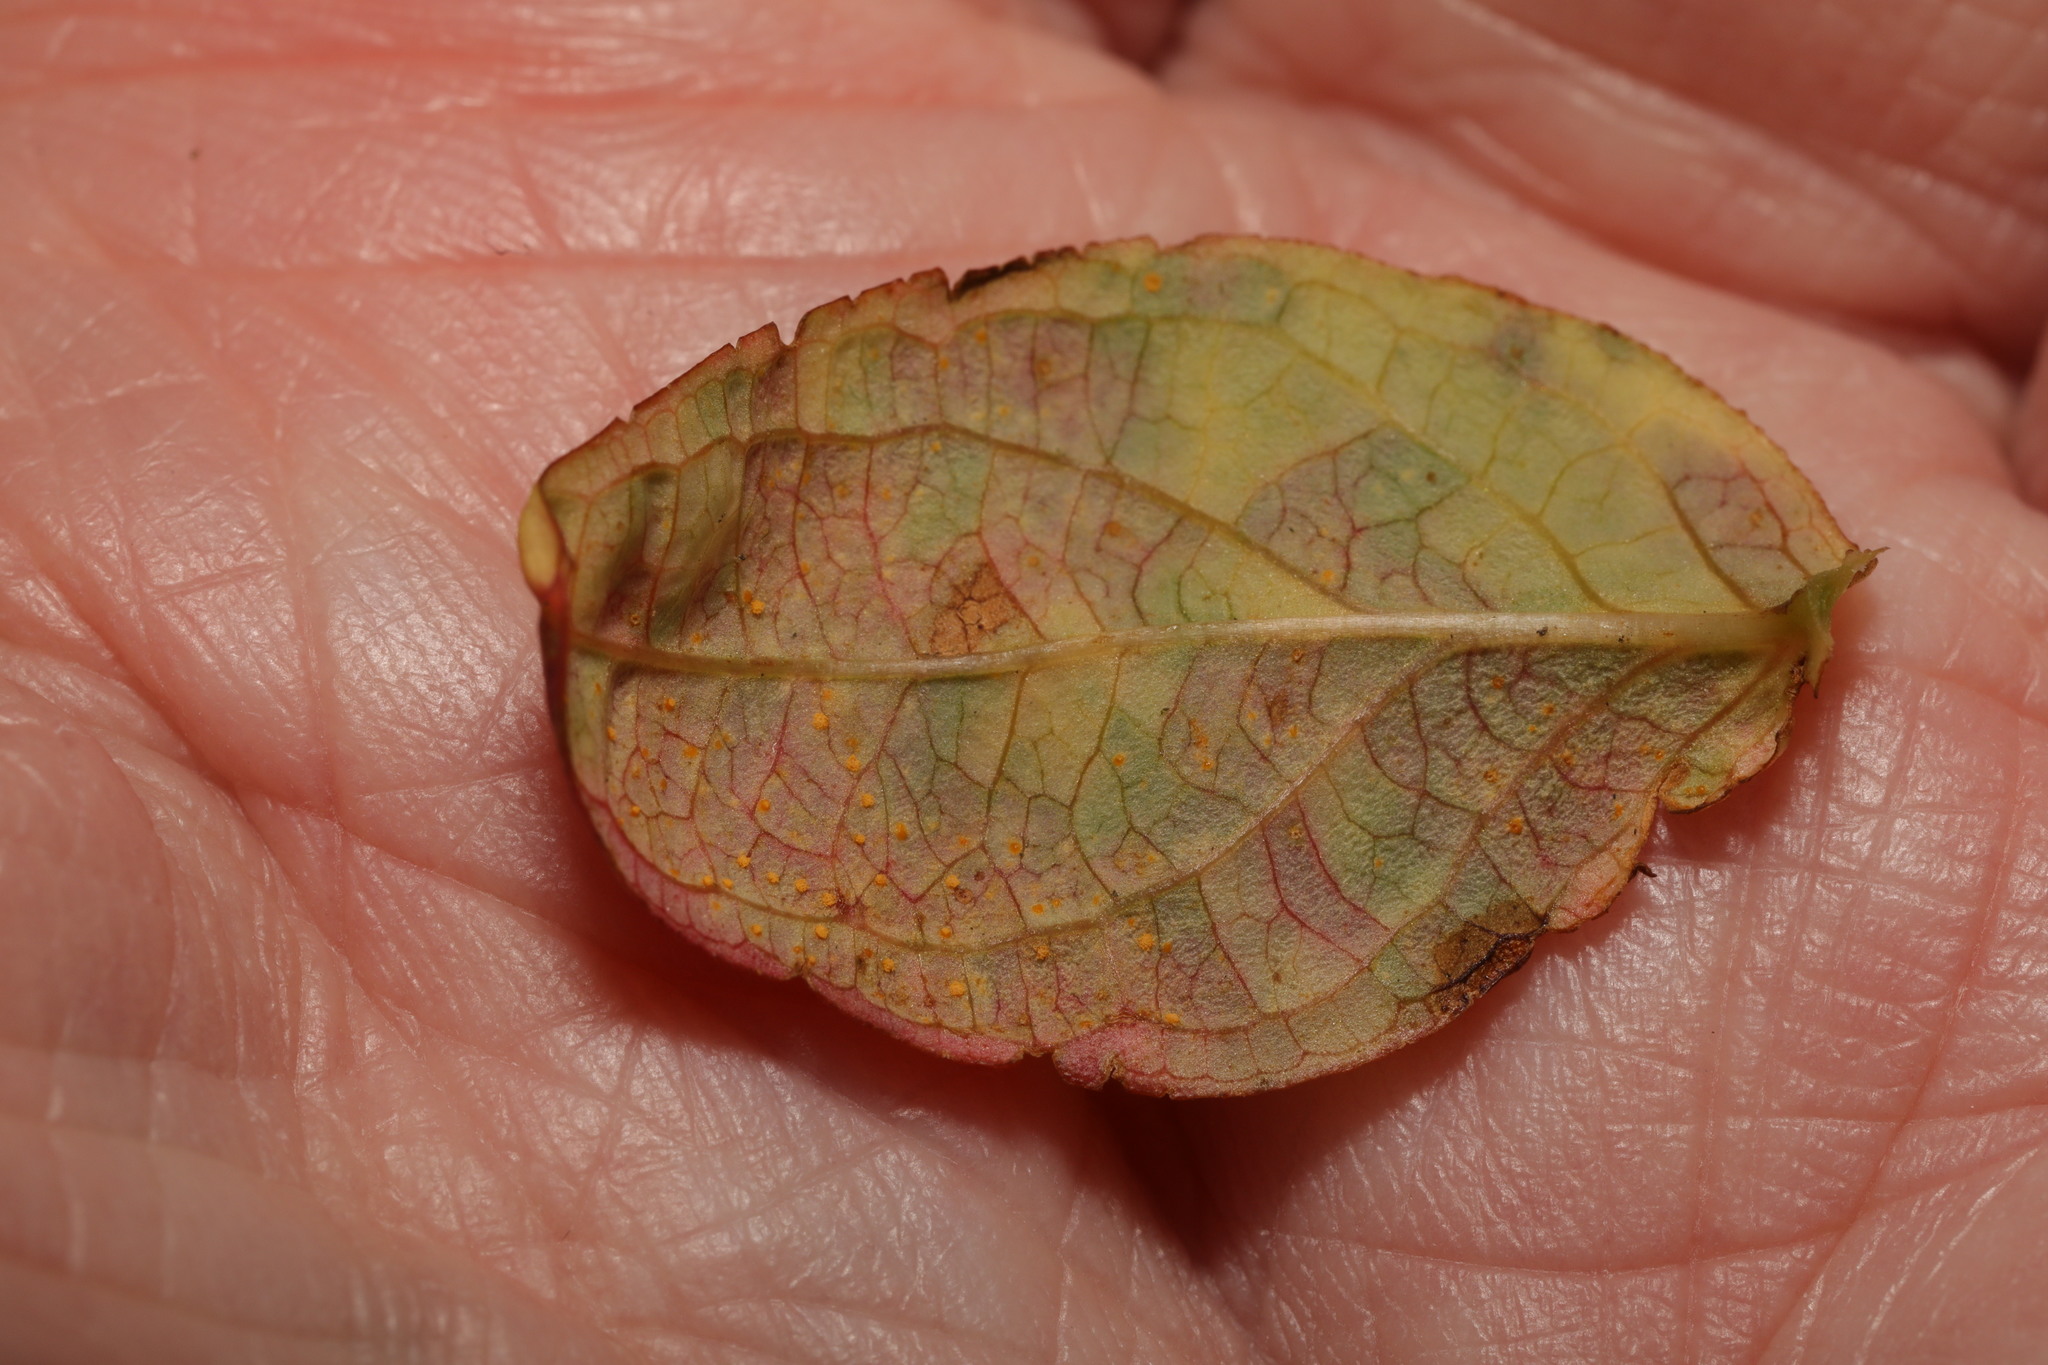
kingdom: Fungi
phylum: Basidiomycota
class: Pucciniomycetes
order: Pucciniales
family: Melampsoraceae
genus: Melampsora
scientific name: Melampsora
